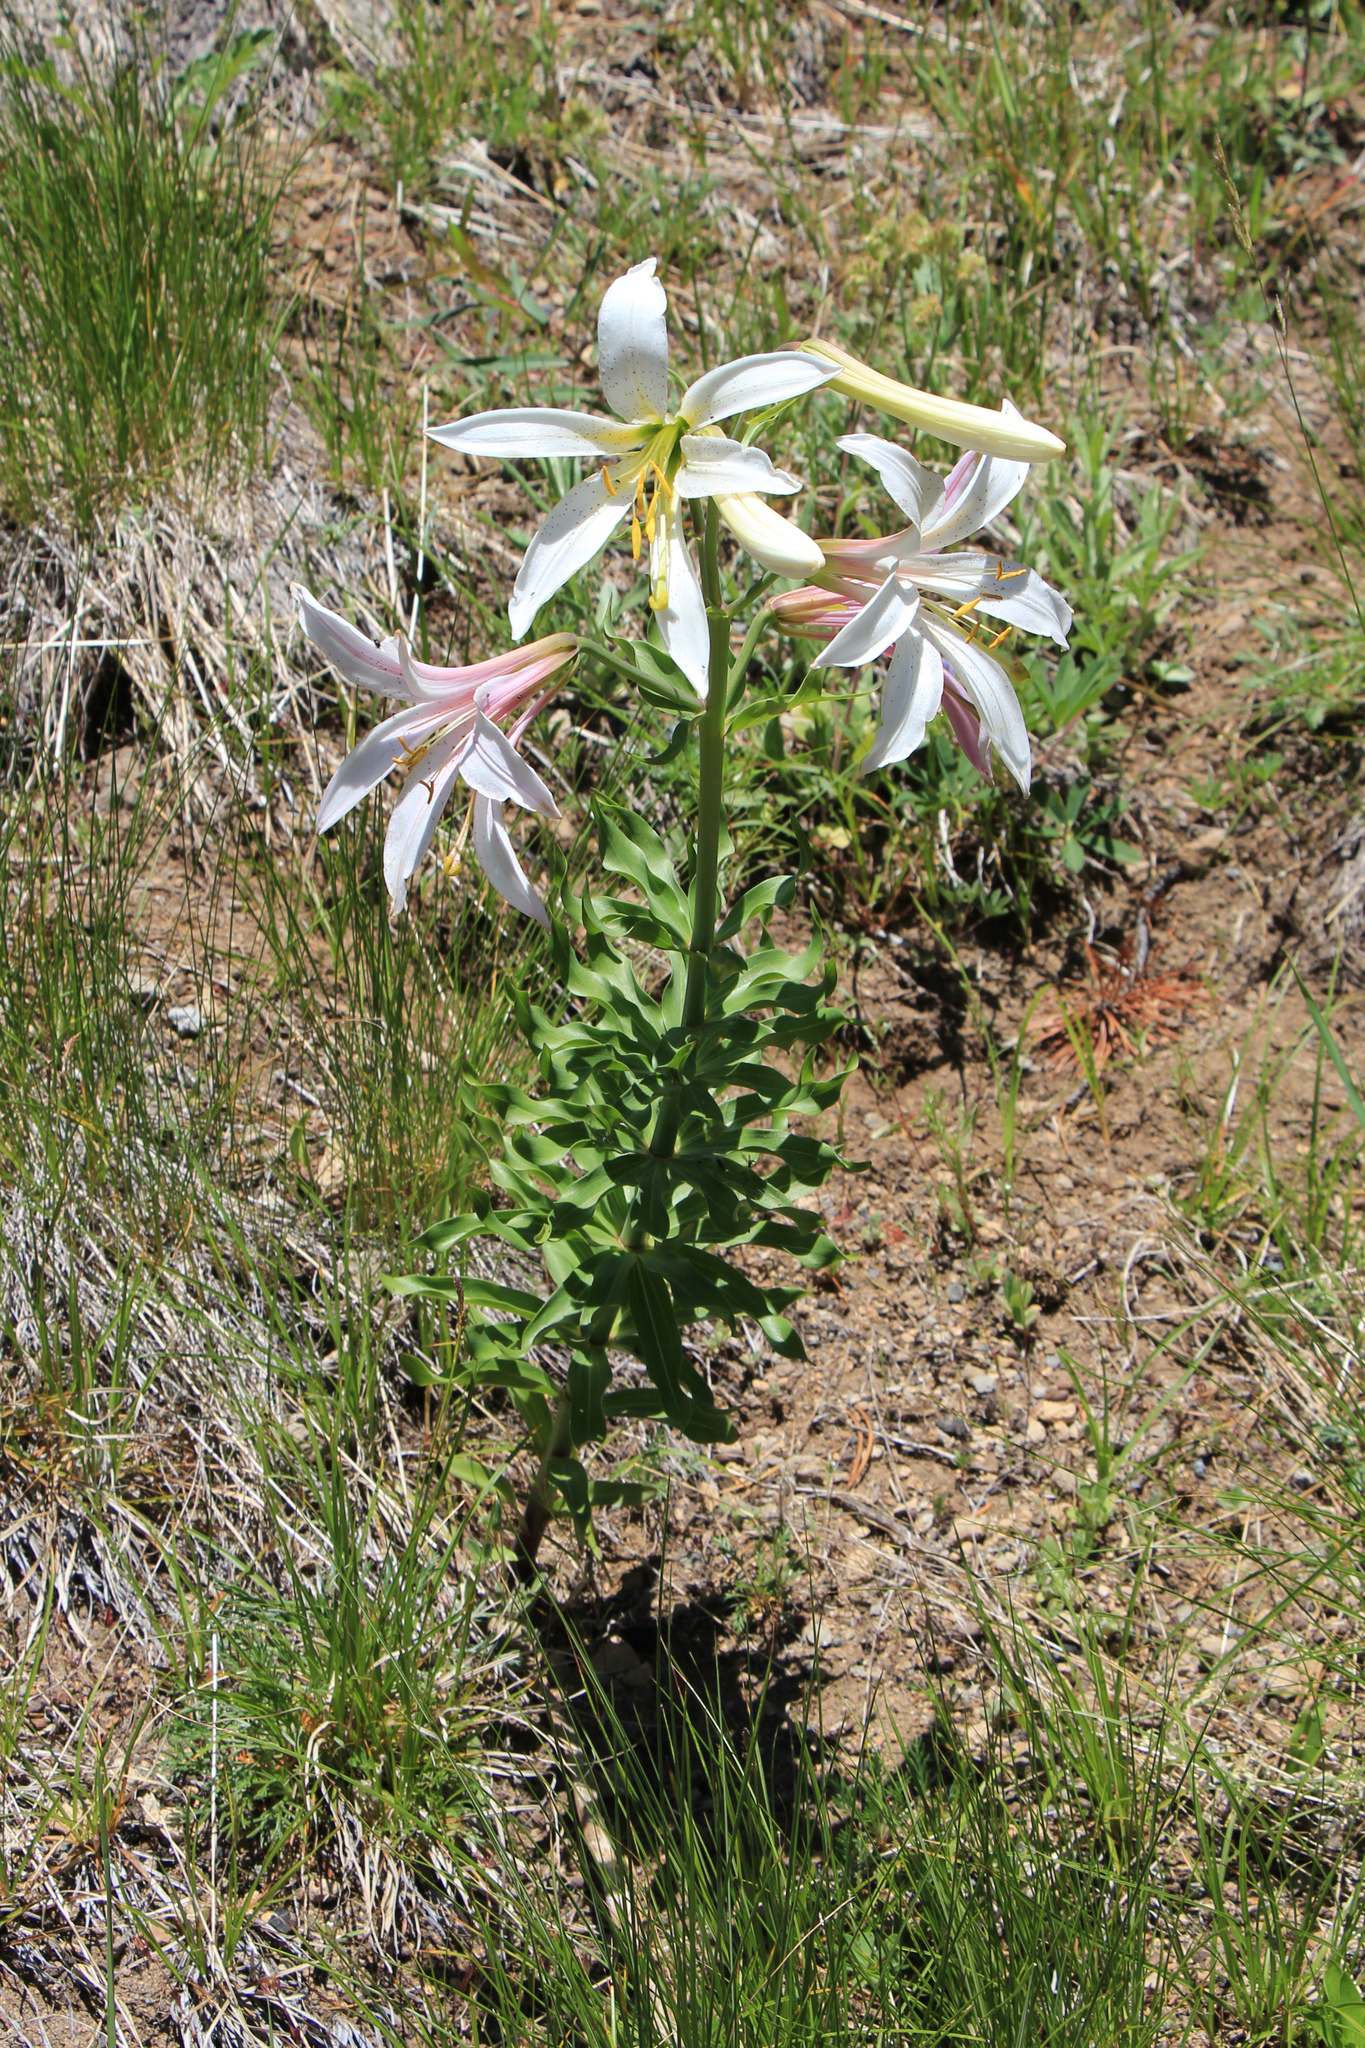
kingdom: Plantae
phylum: Tracheophyta
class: Liliopsida
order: Liliales
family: Liliaceae
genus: Lilium
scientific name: Lilium washingtonianum
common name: Washington lily
